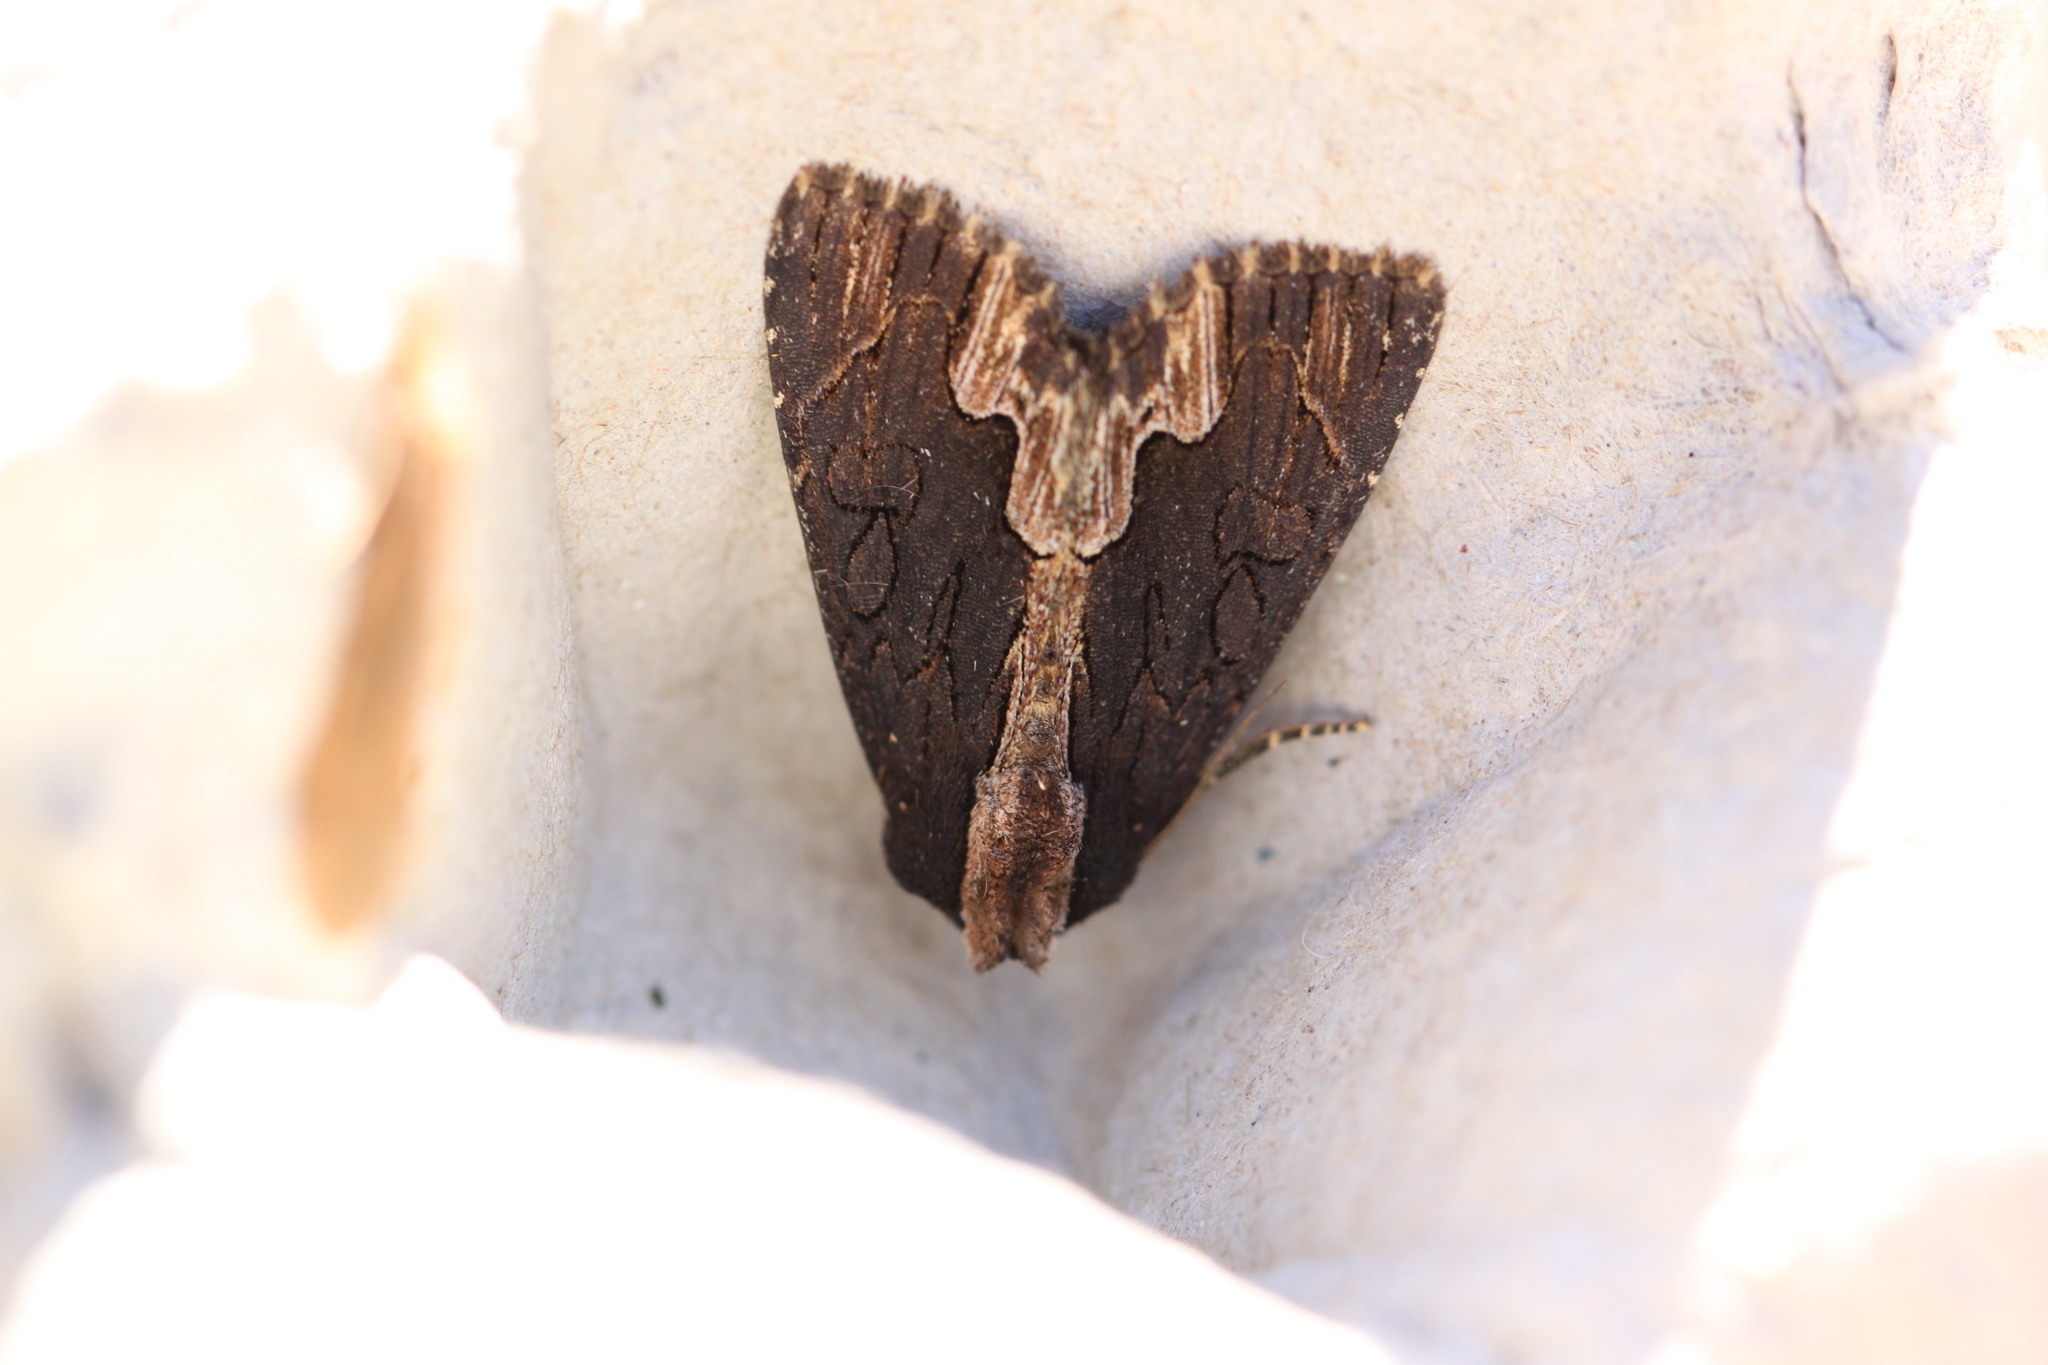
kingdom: Animalia
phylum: Arthropoda
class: Insecta
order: Lepidoptera
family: Noctuidae
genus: Dypterygia
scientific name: Dypterygia scabriuscula
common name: Bird's wing
